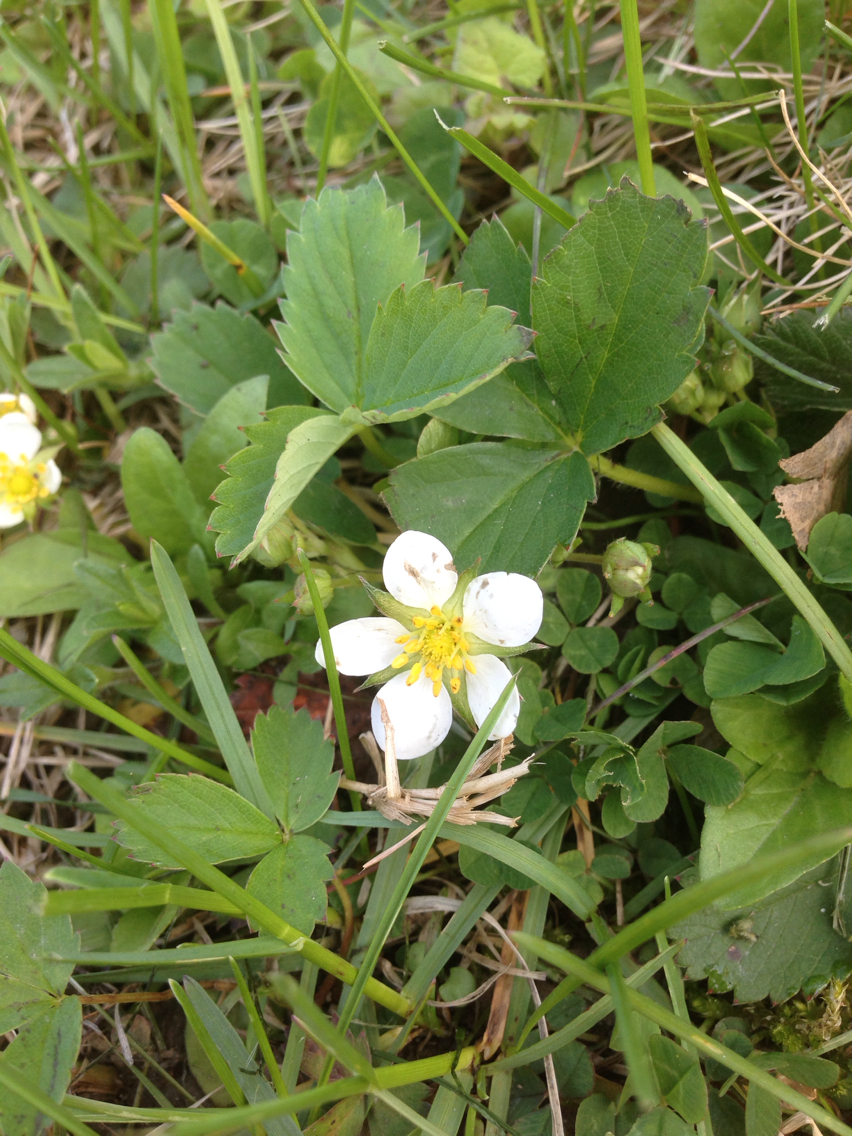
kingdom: Plantae
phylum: Tracheophyta
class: Magnoliopsida
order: Rosales
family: Rosaceae
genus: Fragaria
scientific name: Fragaria virginiana
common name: Thickleaved wild strawberry
